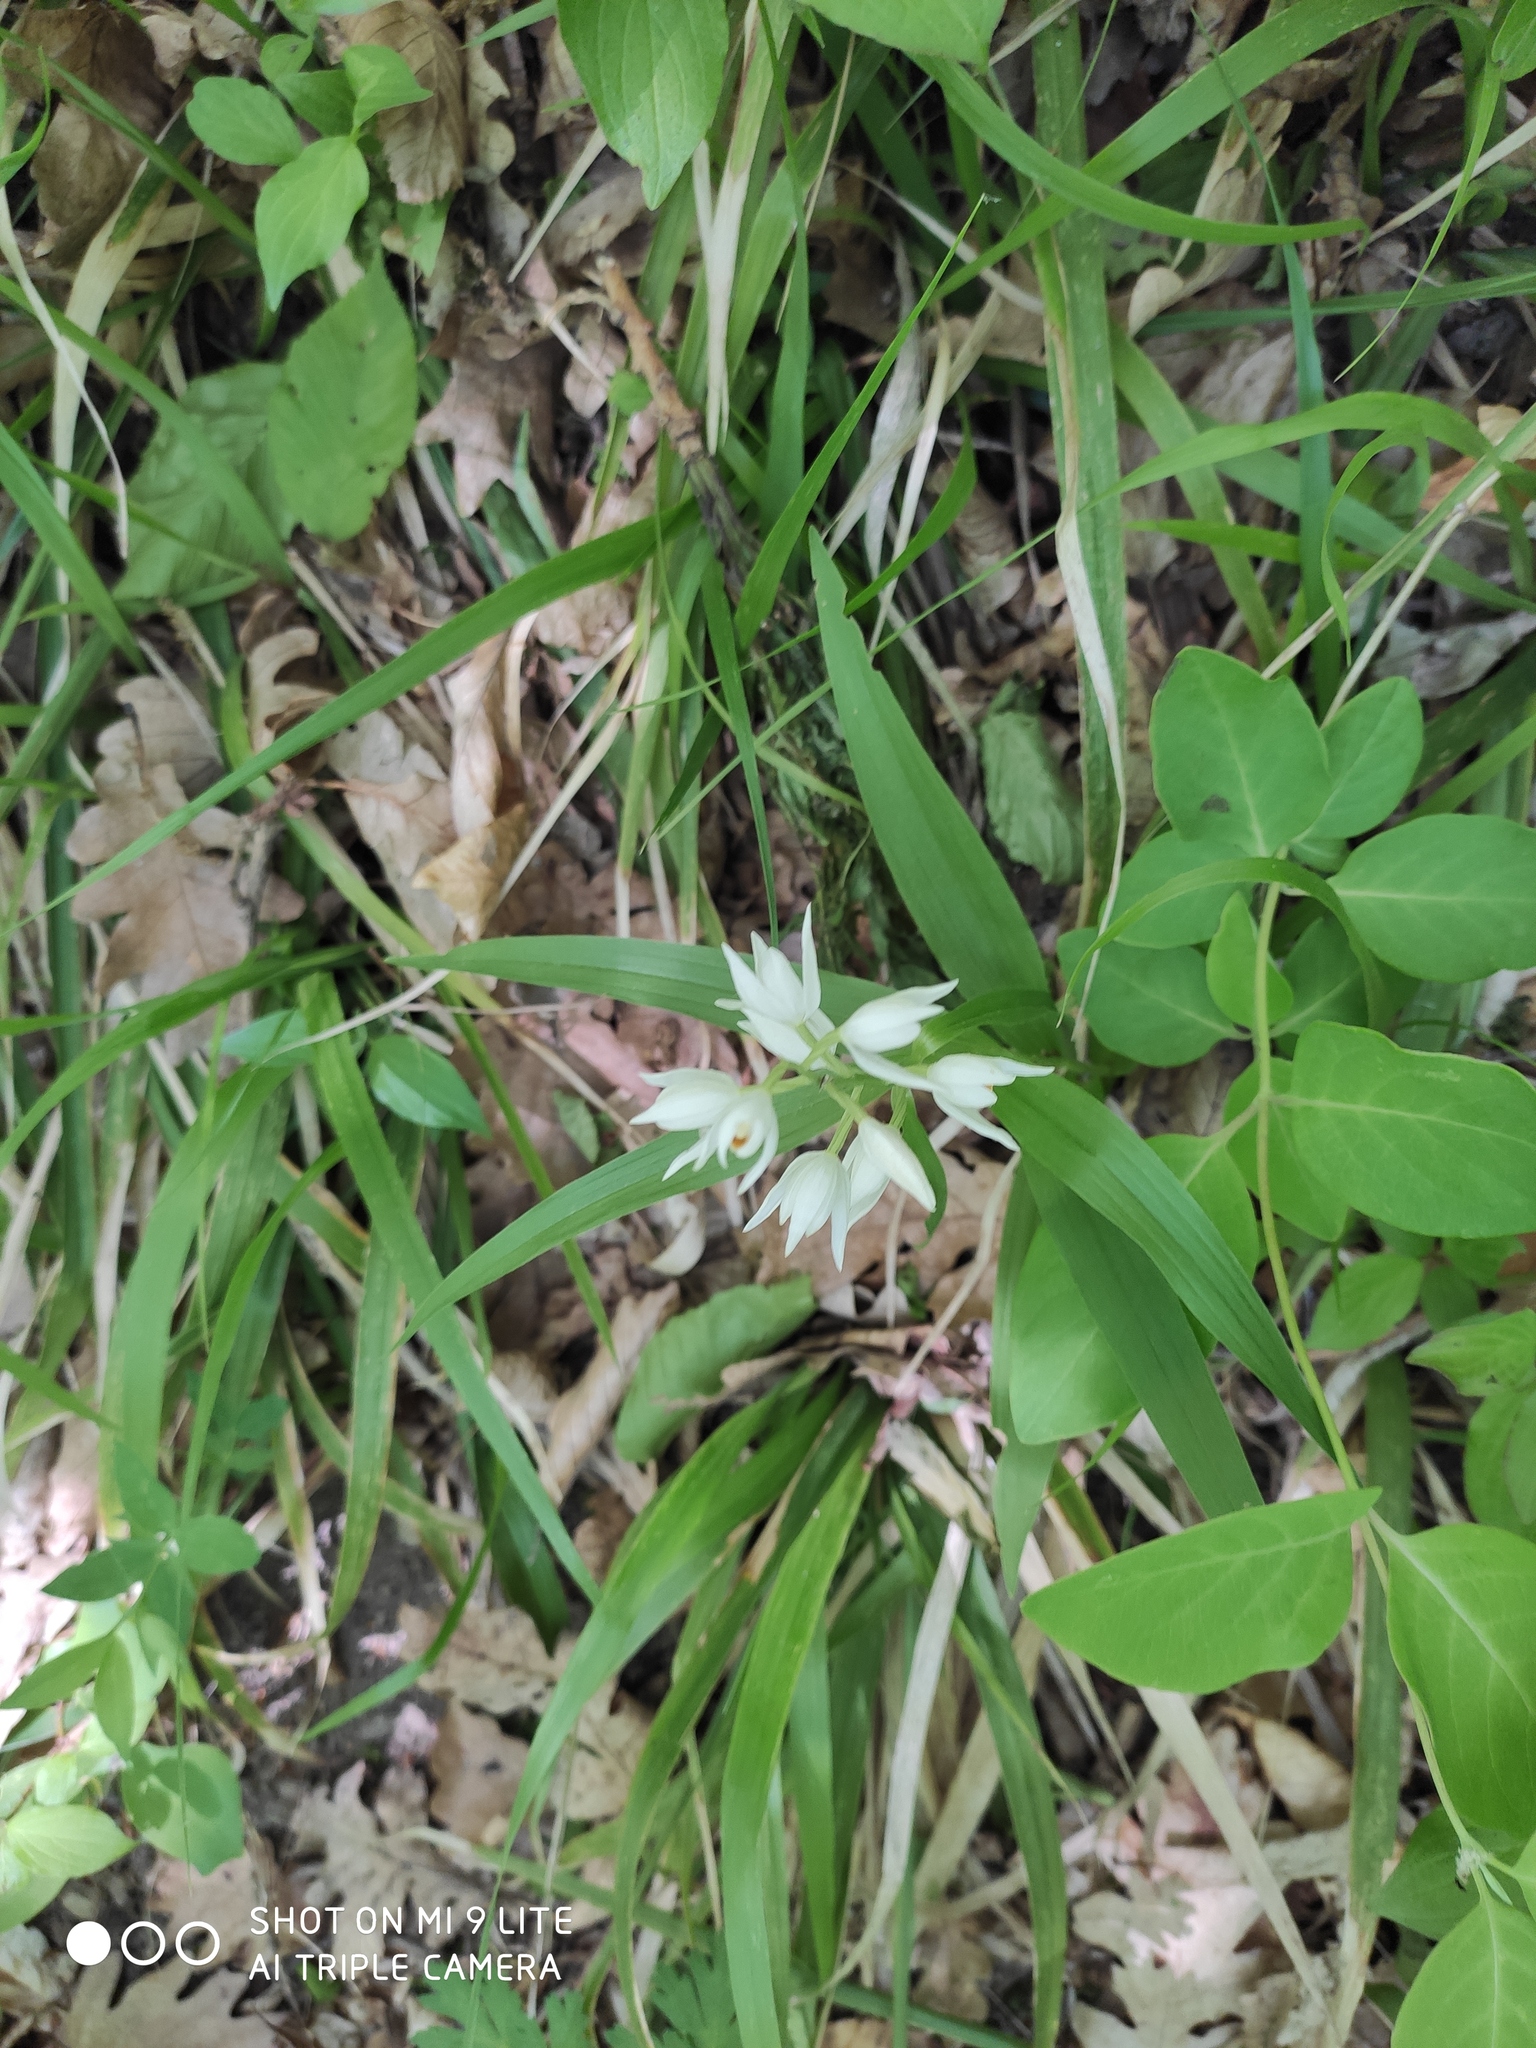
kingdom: Plantae
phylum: Tracheophyta
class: Liliopsida
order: Asparagales
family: Orchidaceae
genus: Cephalanthera
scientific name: Cephalanthera longifolia
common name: Narrow-leaved helleborine
